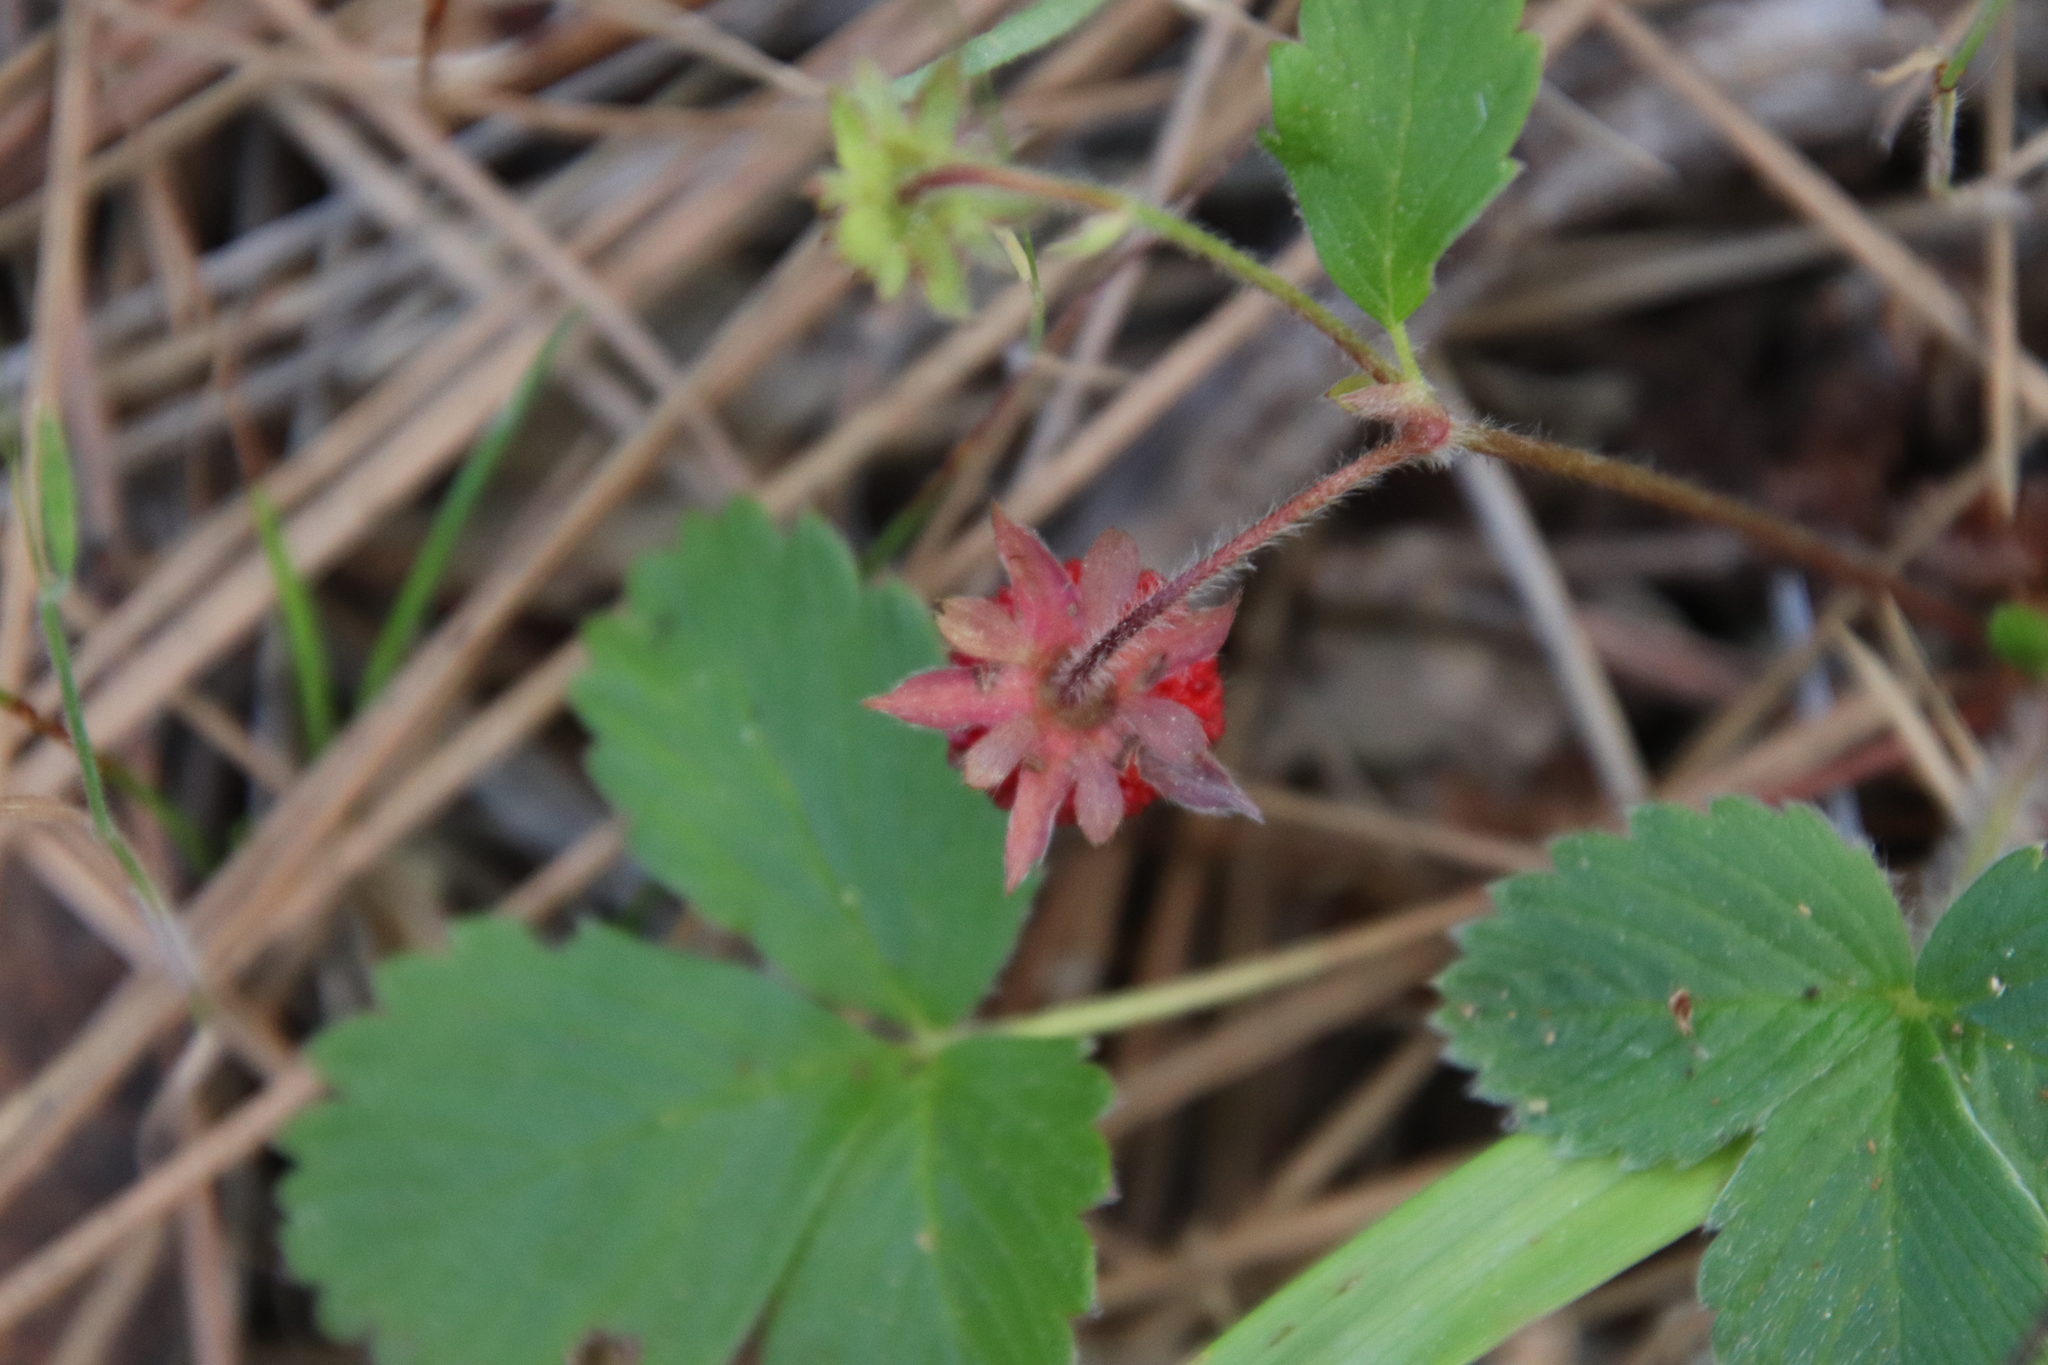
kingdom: Plantae
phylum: Tracheophyta
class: Magnoliopsida
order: Rosales
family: Rosaceae
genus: Fragaria
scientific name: Fragaria vesca
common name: Wild strawberry
